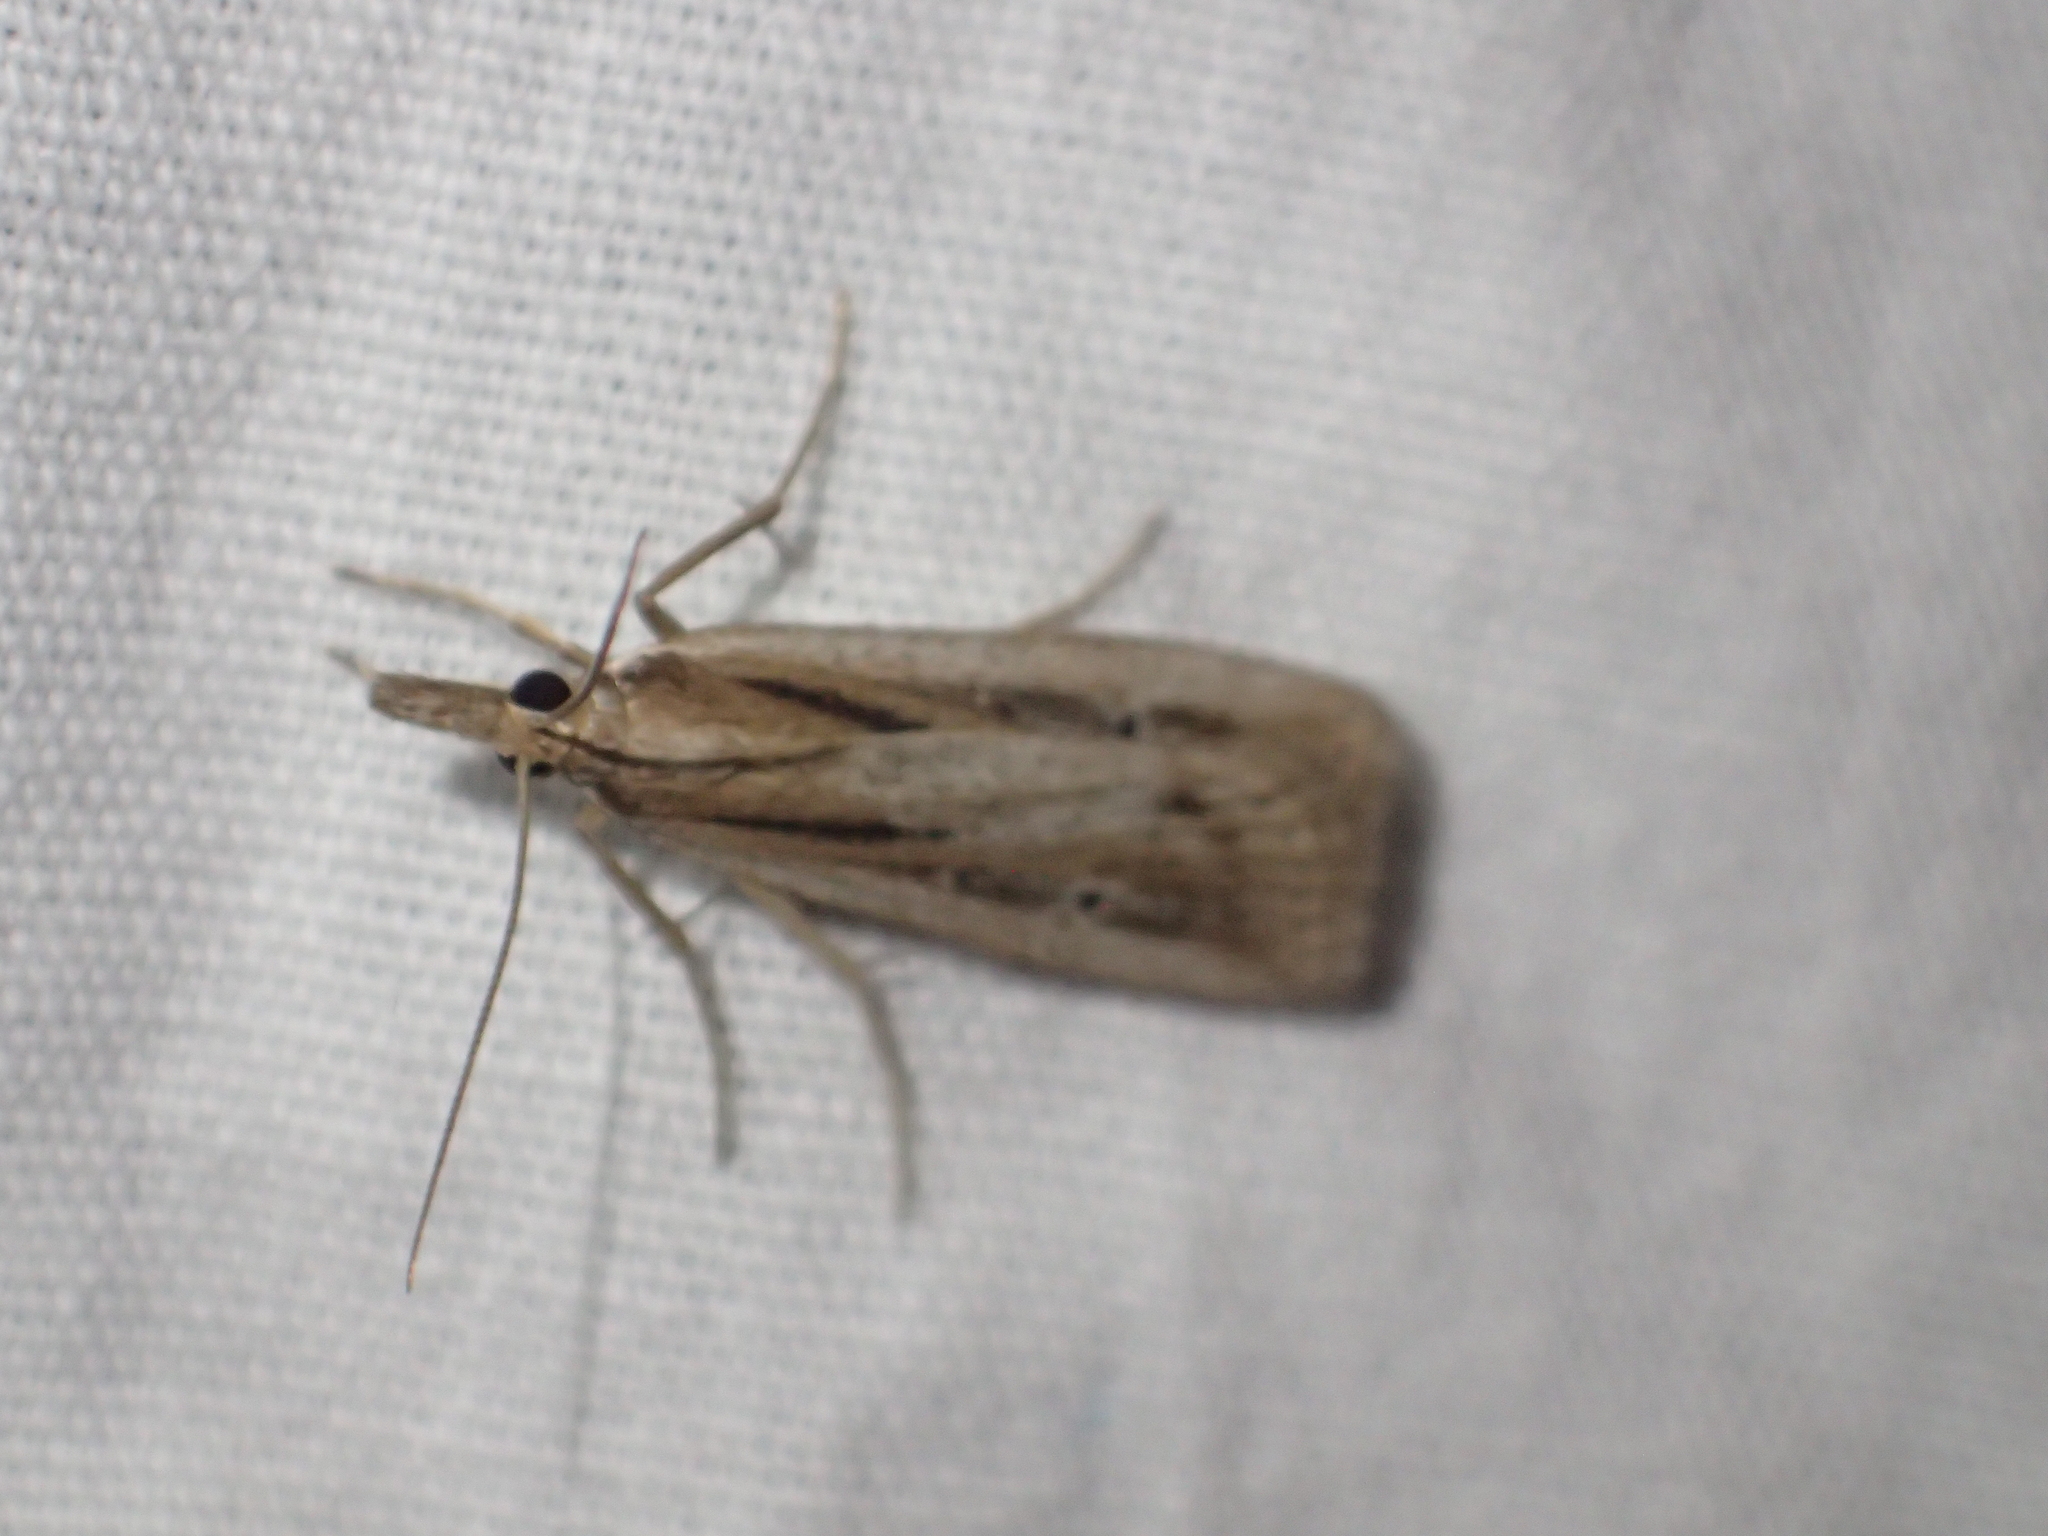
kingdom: Animalia
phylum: Arthropoda
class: Insecta
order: Lepidoptera
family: Crambidae
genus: Eudonia
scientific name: Eudonia sabulosella
